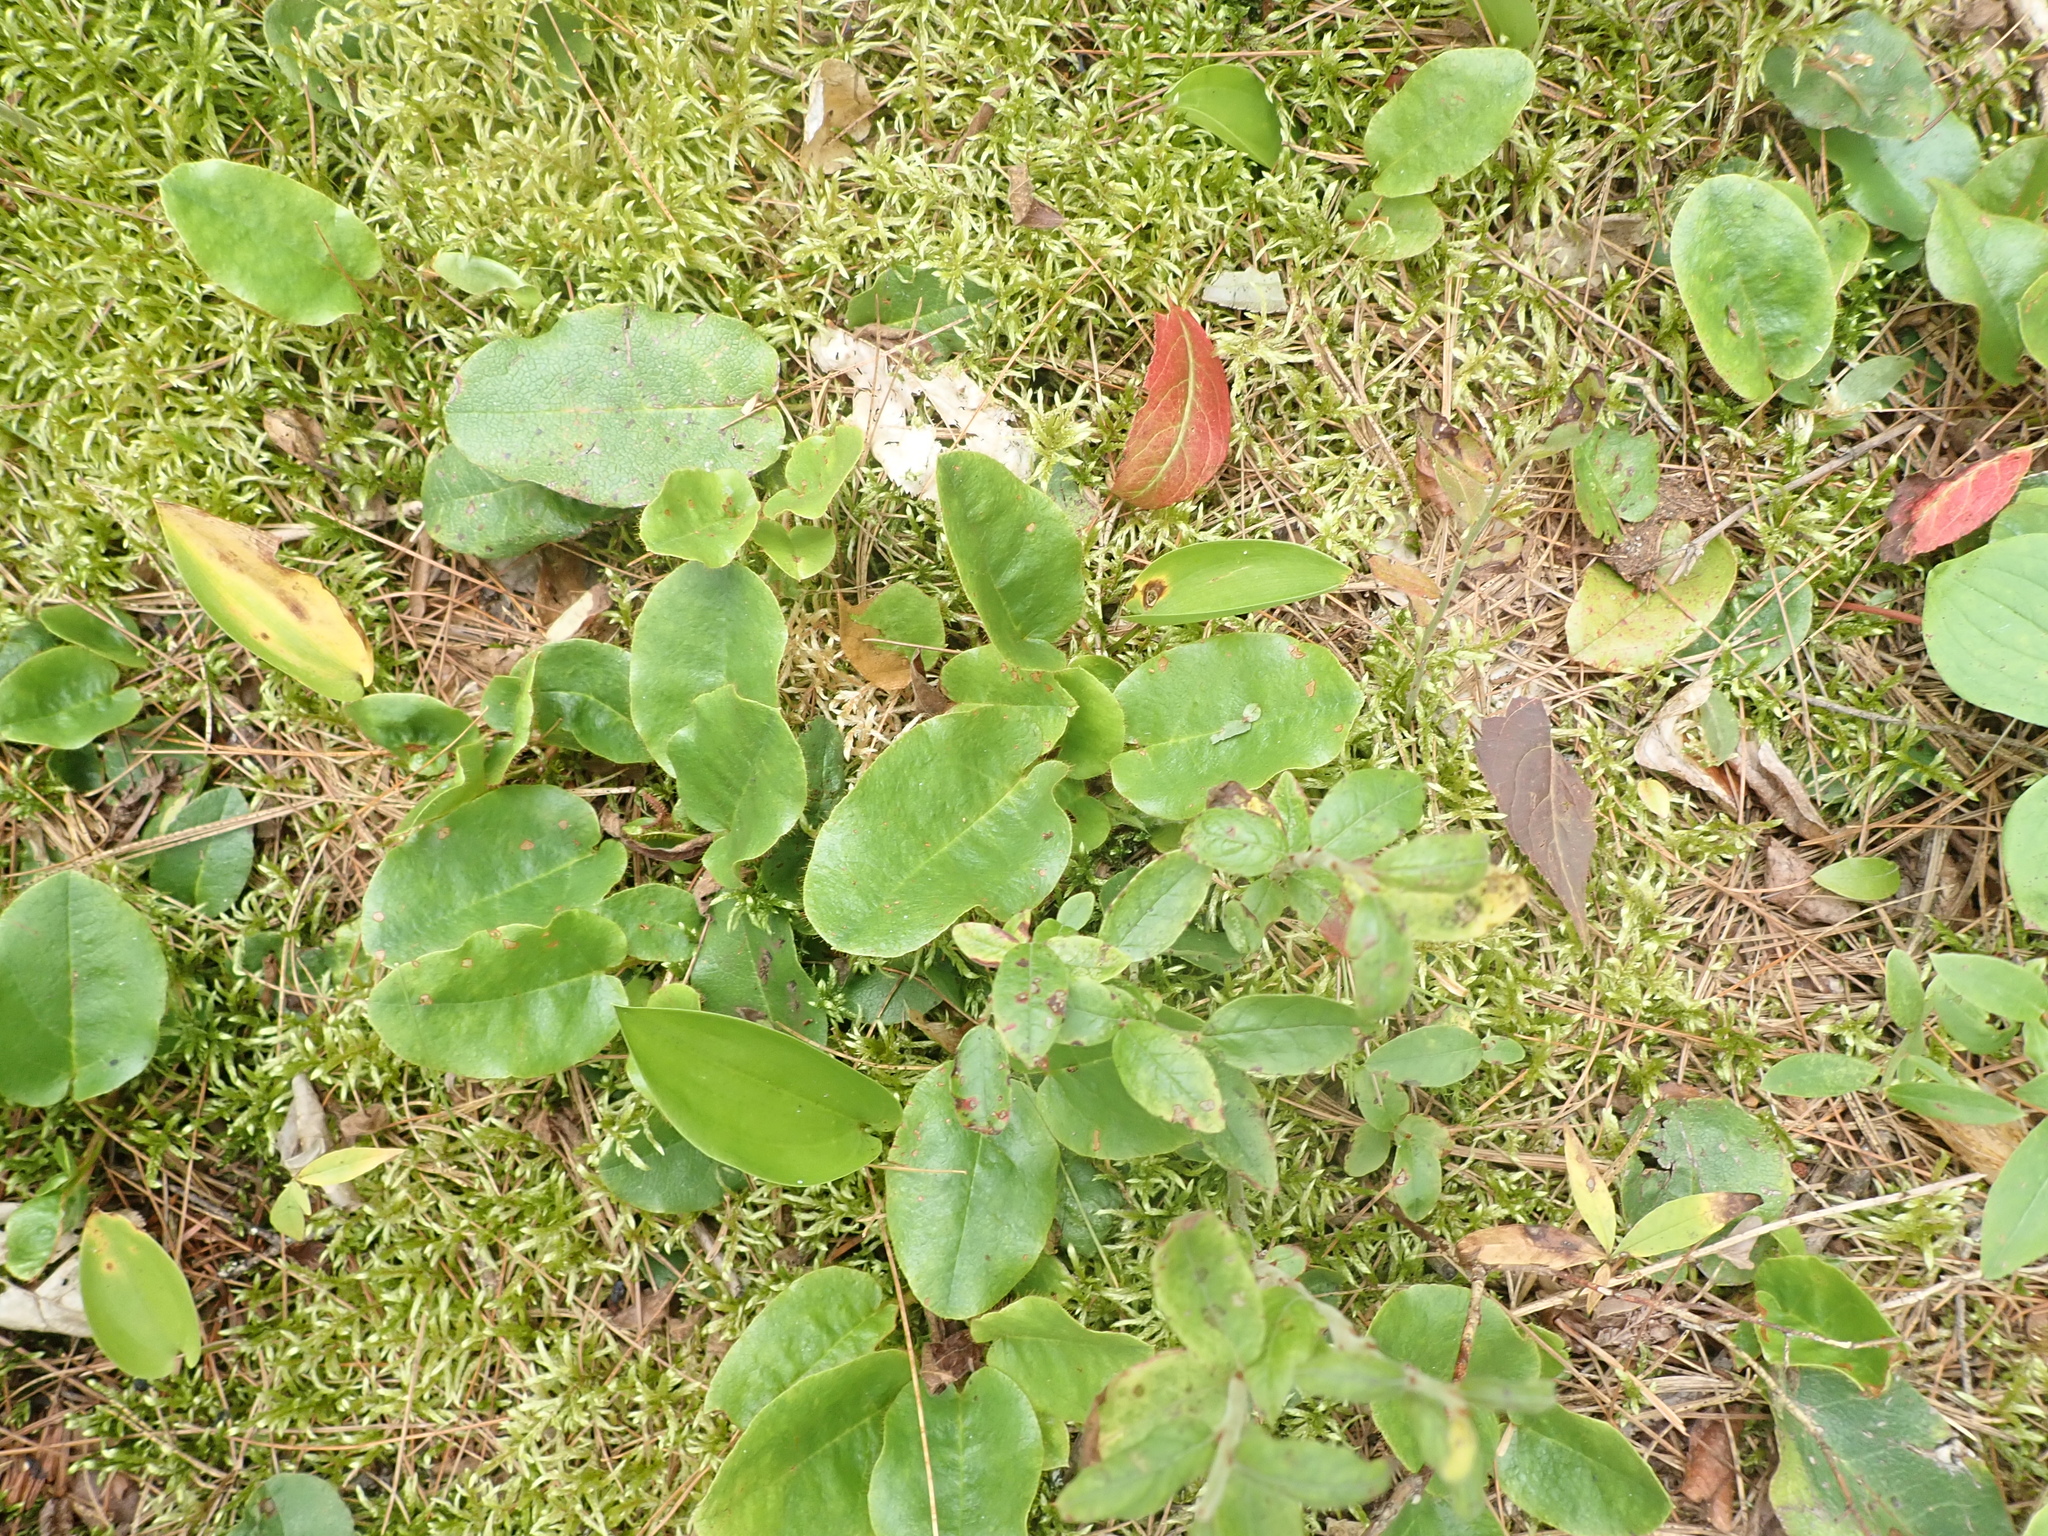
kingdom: Plantae
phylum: Tracheophyta
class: Magnoliopsida
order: Ericales
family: Ericaceae
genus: Epigaea
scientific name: Epigaea repens
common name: Gravelroot
